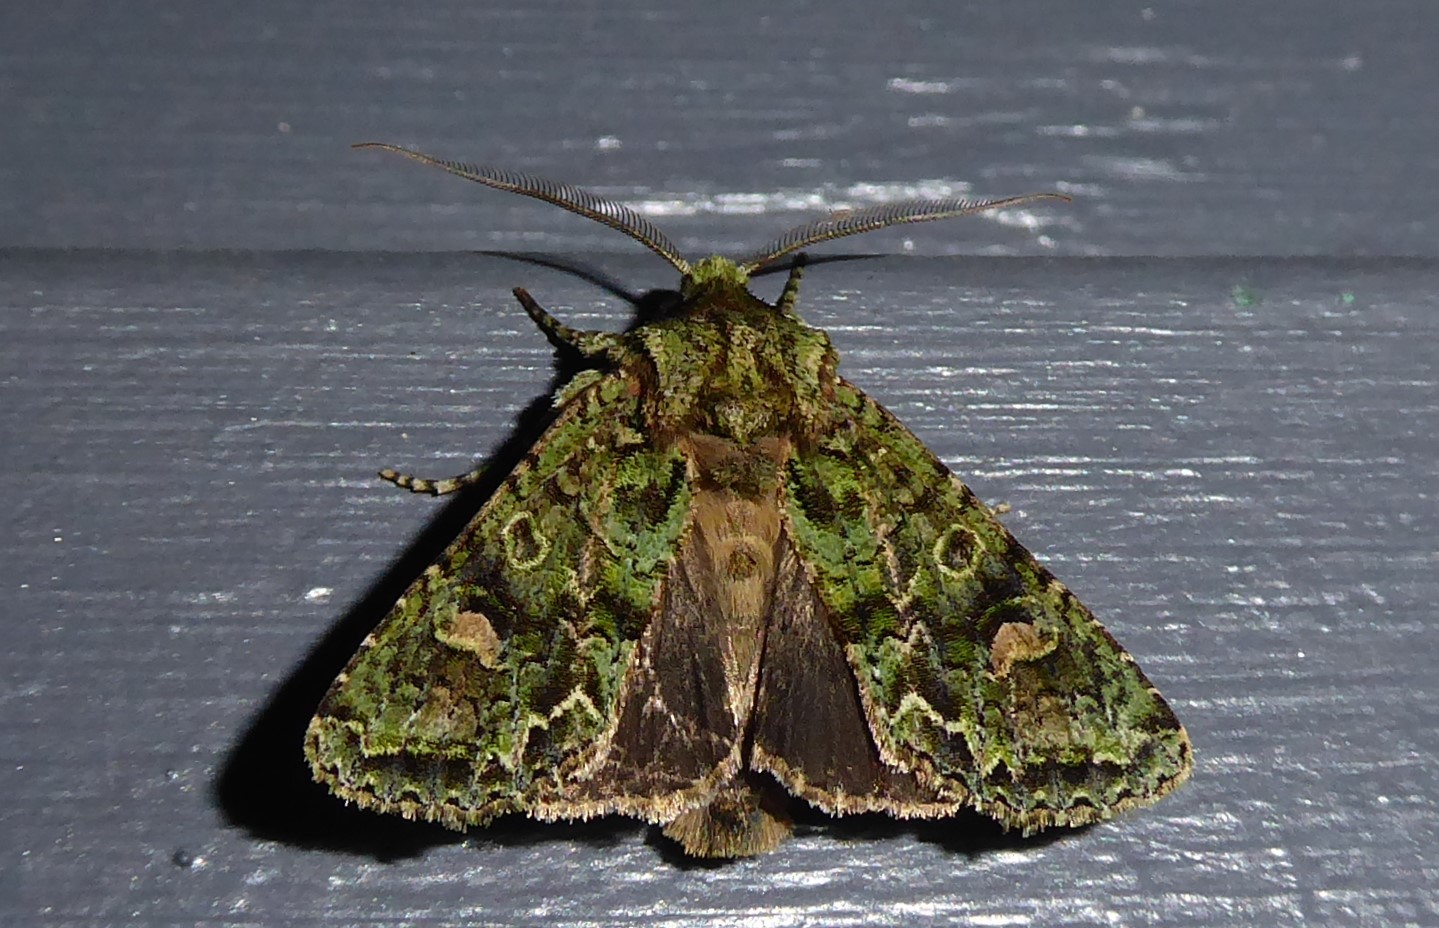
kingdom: Animalia
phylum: Arthropoda
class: Insecta
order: Lepidoptera
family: Noctuidae
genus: Ichneutica
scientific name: Ichneutica
